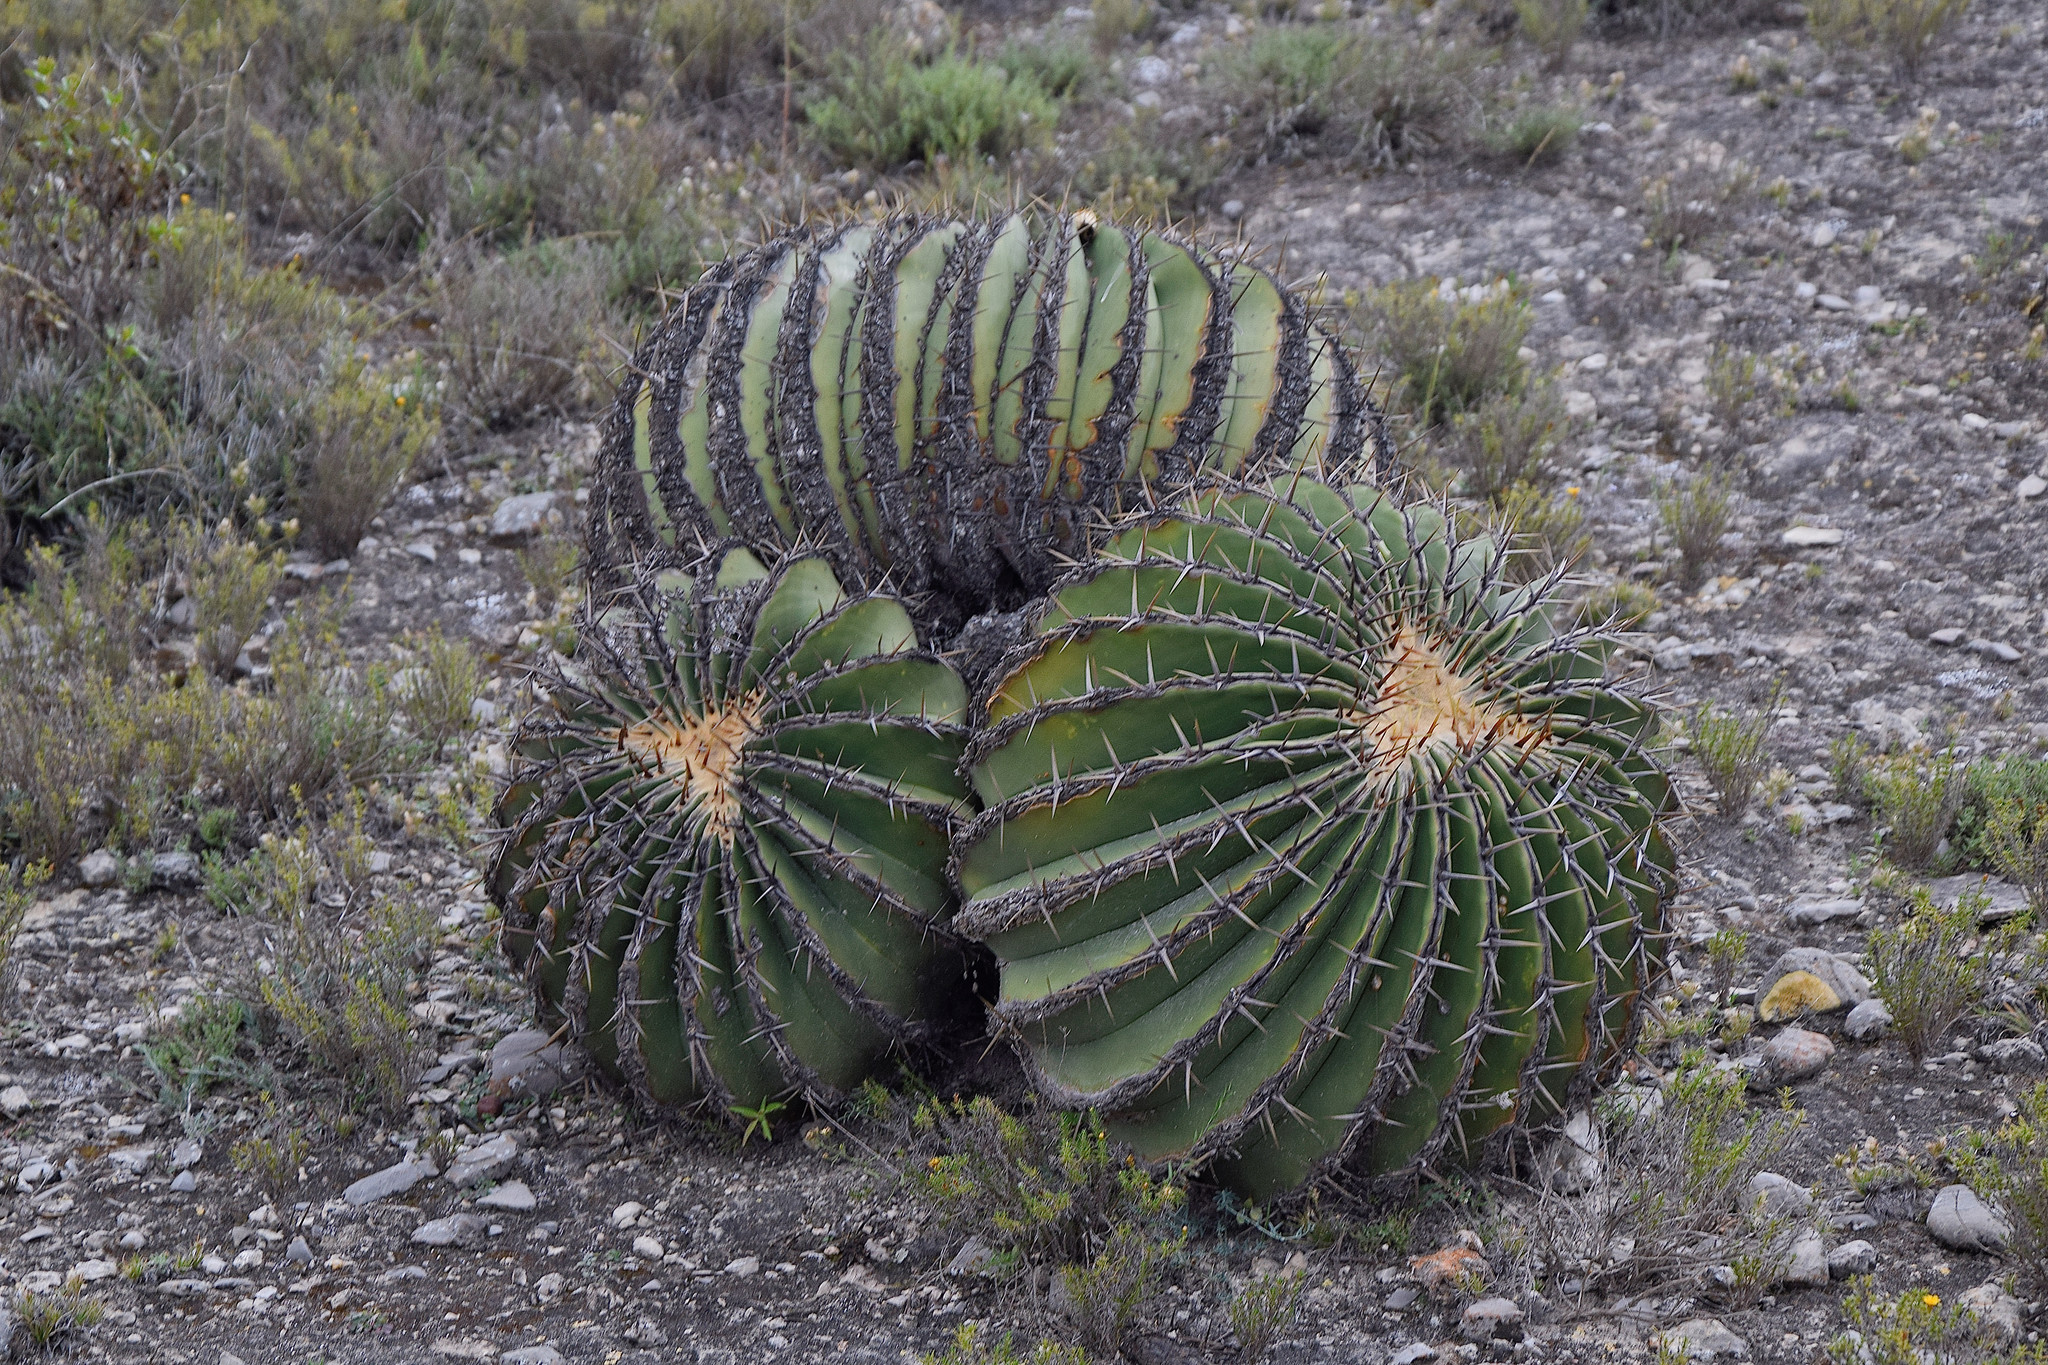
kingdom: Plantae
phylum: Tracheophyta
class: Magnoliopsida
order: Caryophyllales
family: Cactaceae
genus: Echinocactus
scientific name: Echinocactus platyacanthus
